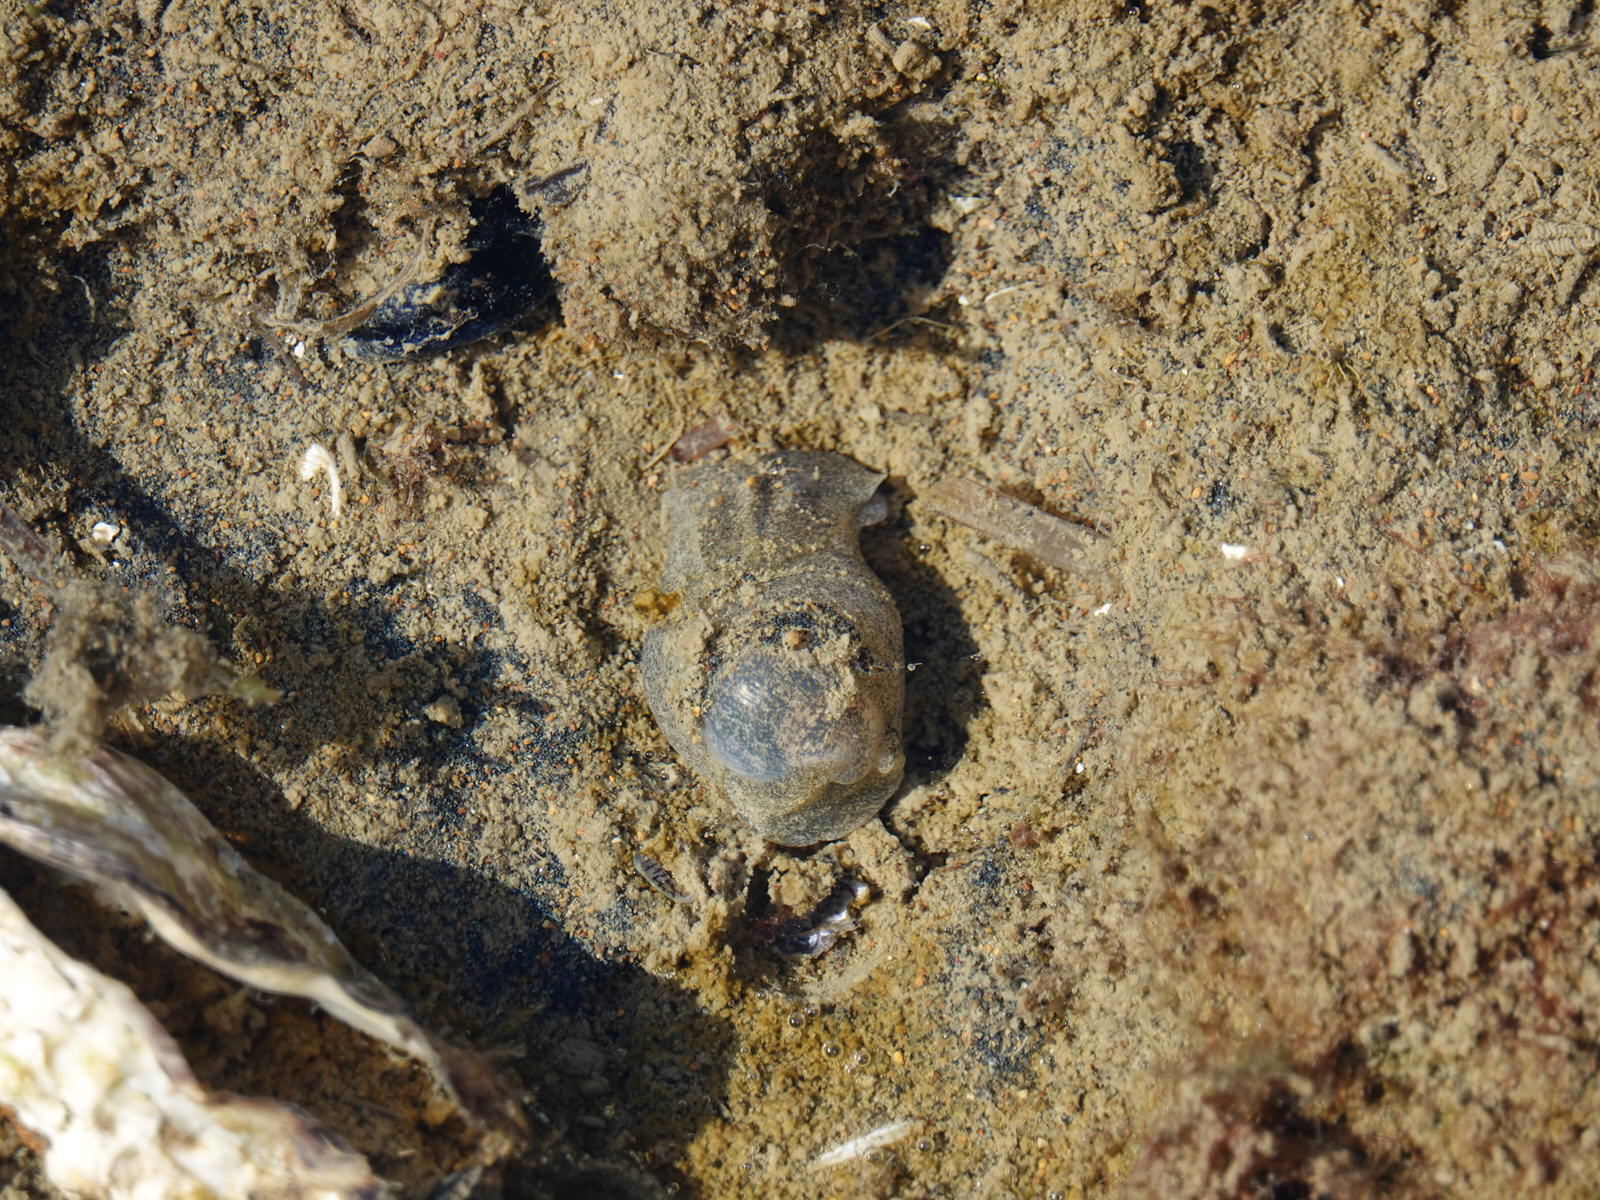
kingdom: Animalia
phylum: Mollusca
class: Gastropoda
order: Cephalaspidea
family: Haminoeidae
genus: Papawera
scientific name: Papawera zelandiae
